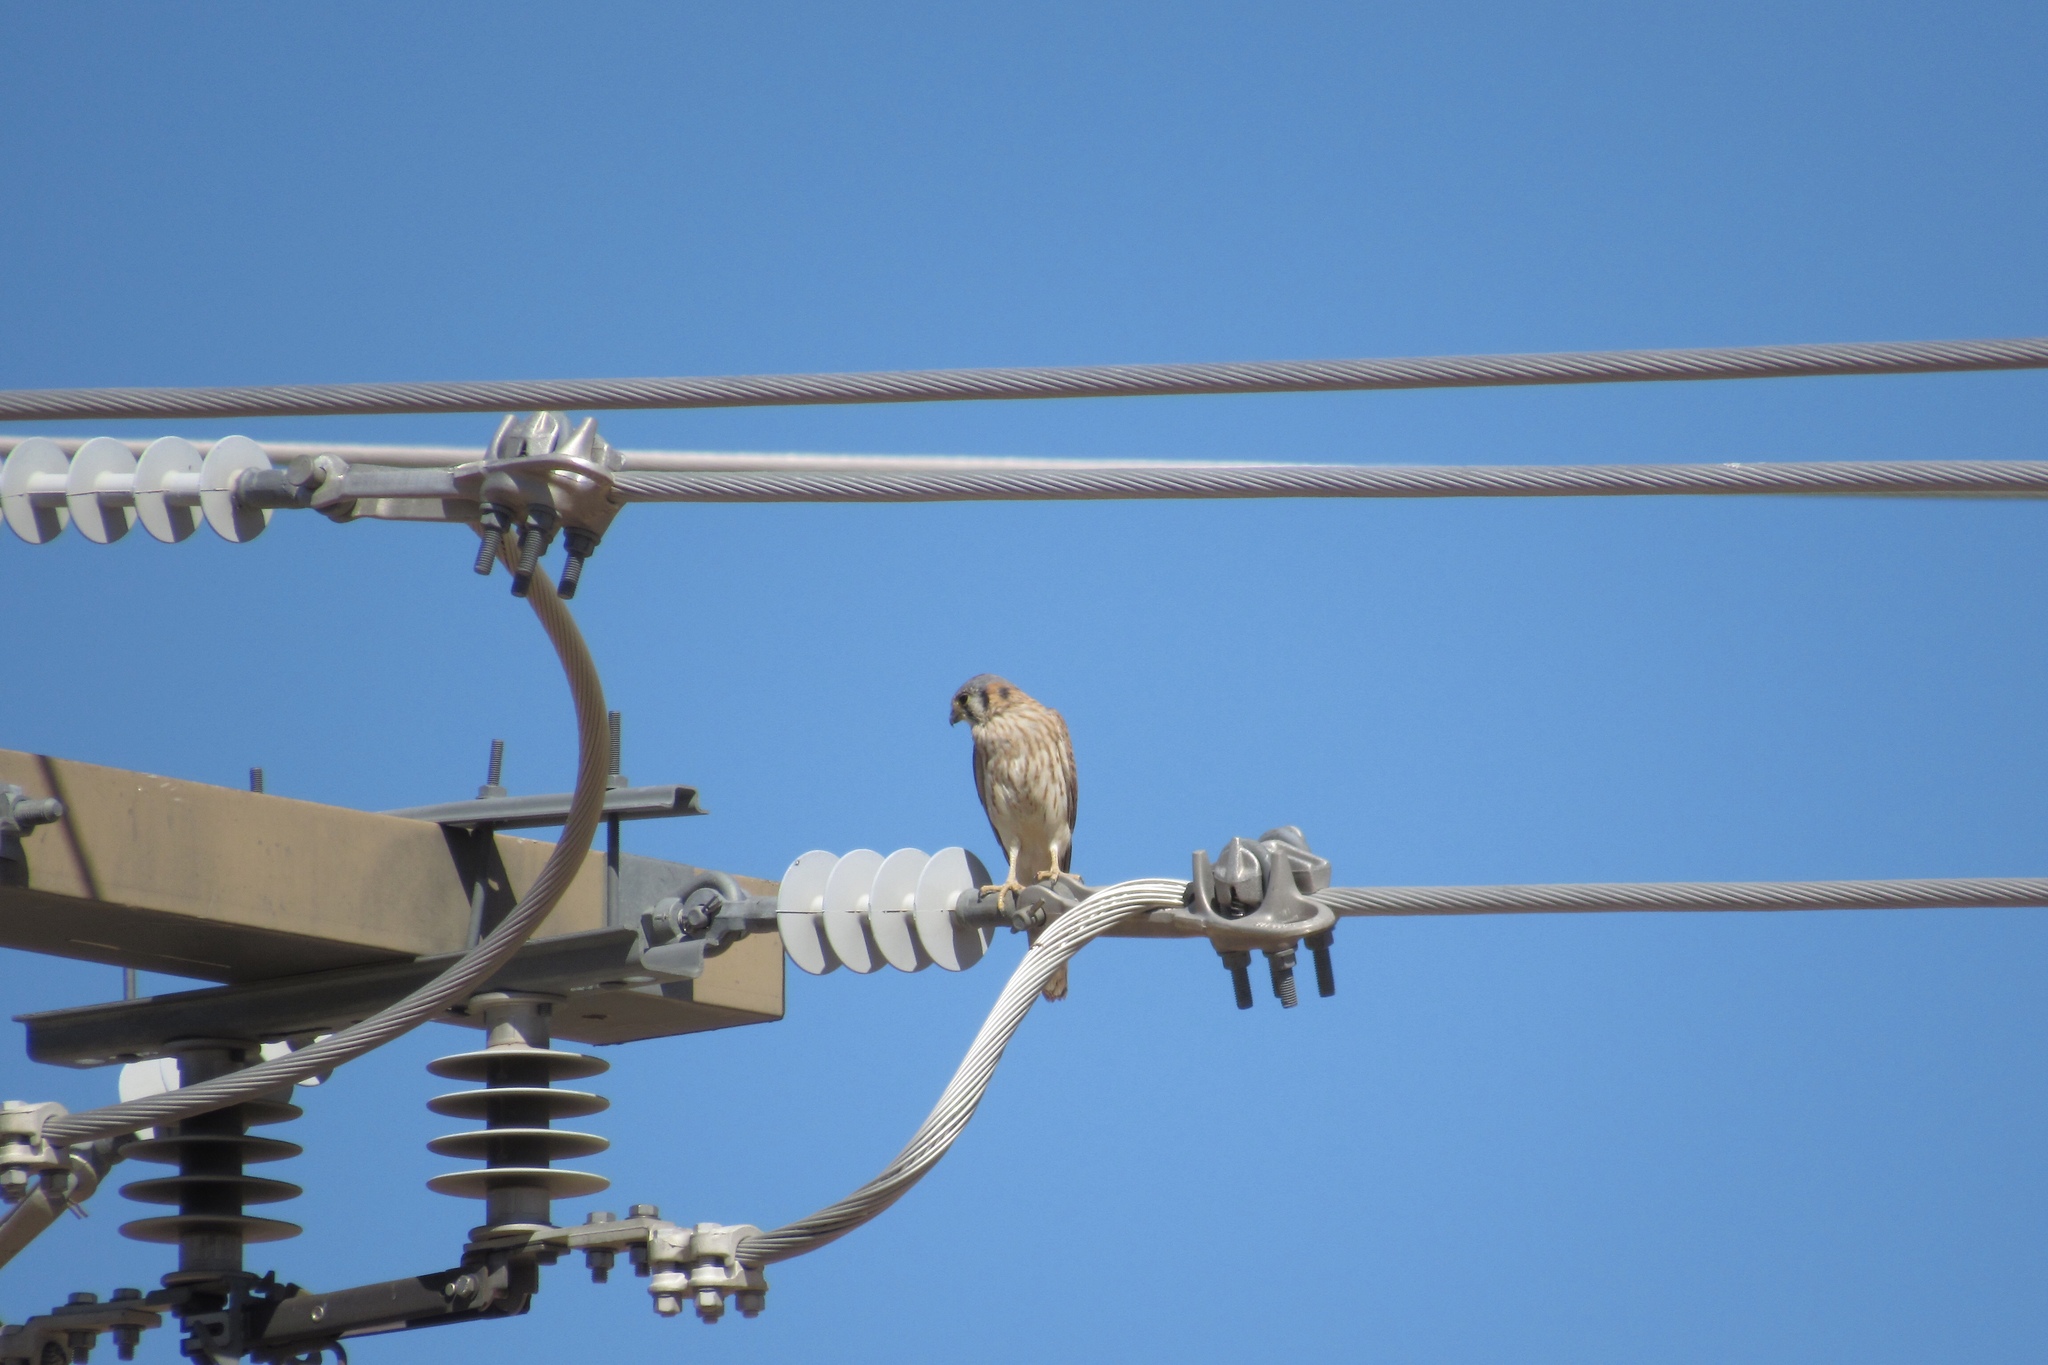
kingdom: Animalia
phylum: Chordata
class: Aves
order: Falconiformes
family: Falconidae
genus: Falco
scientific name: Falco sparverius
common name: American kestrel
